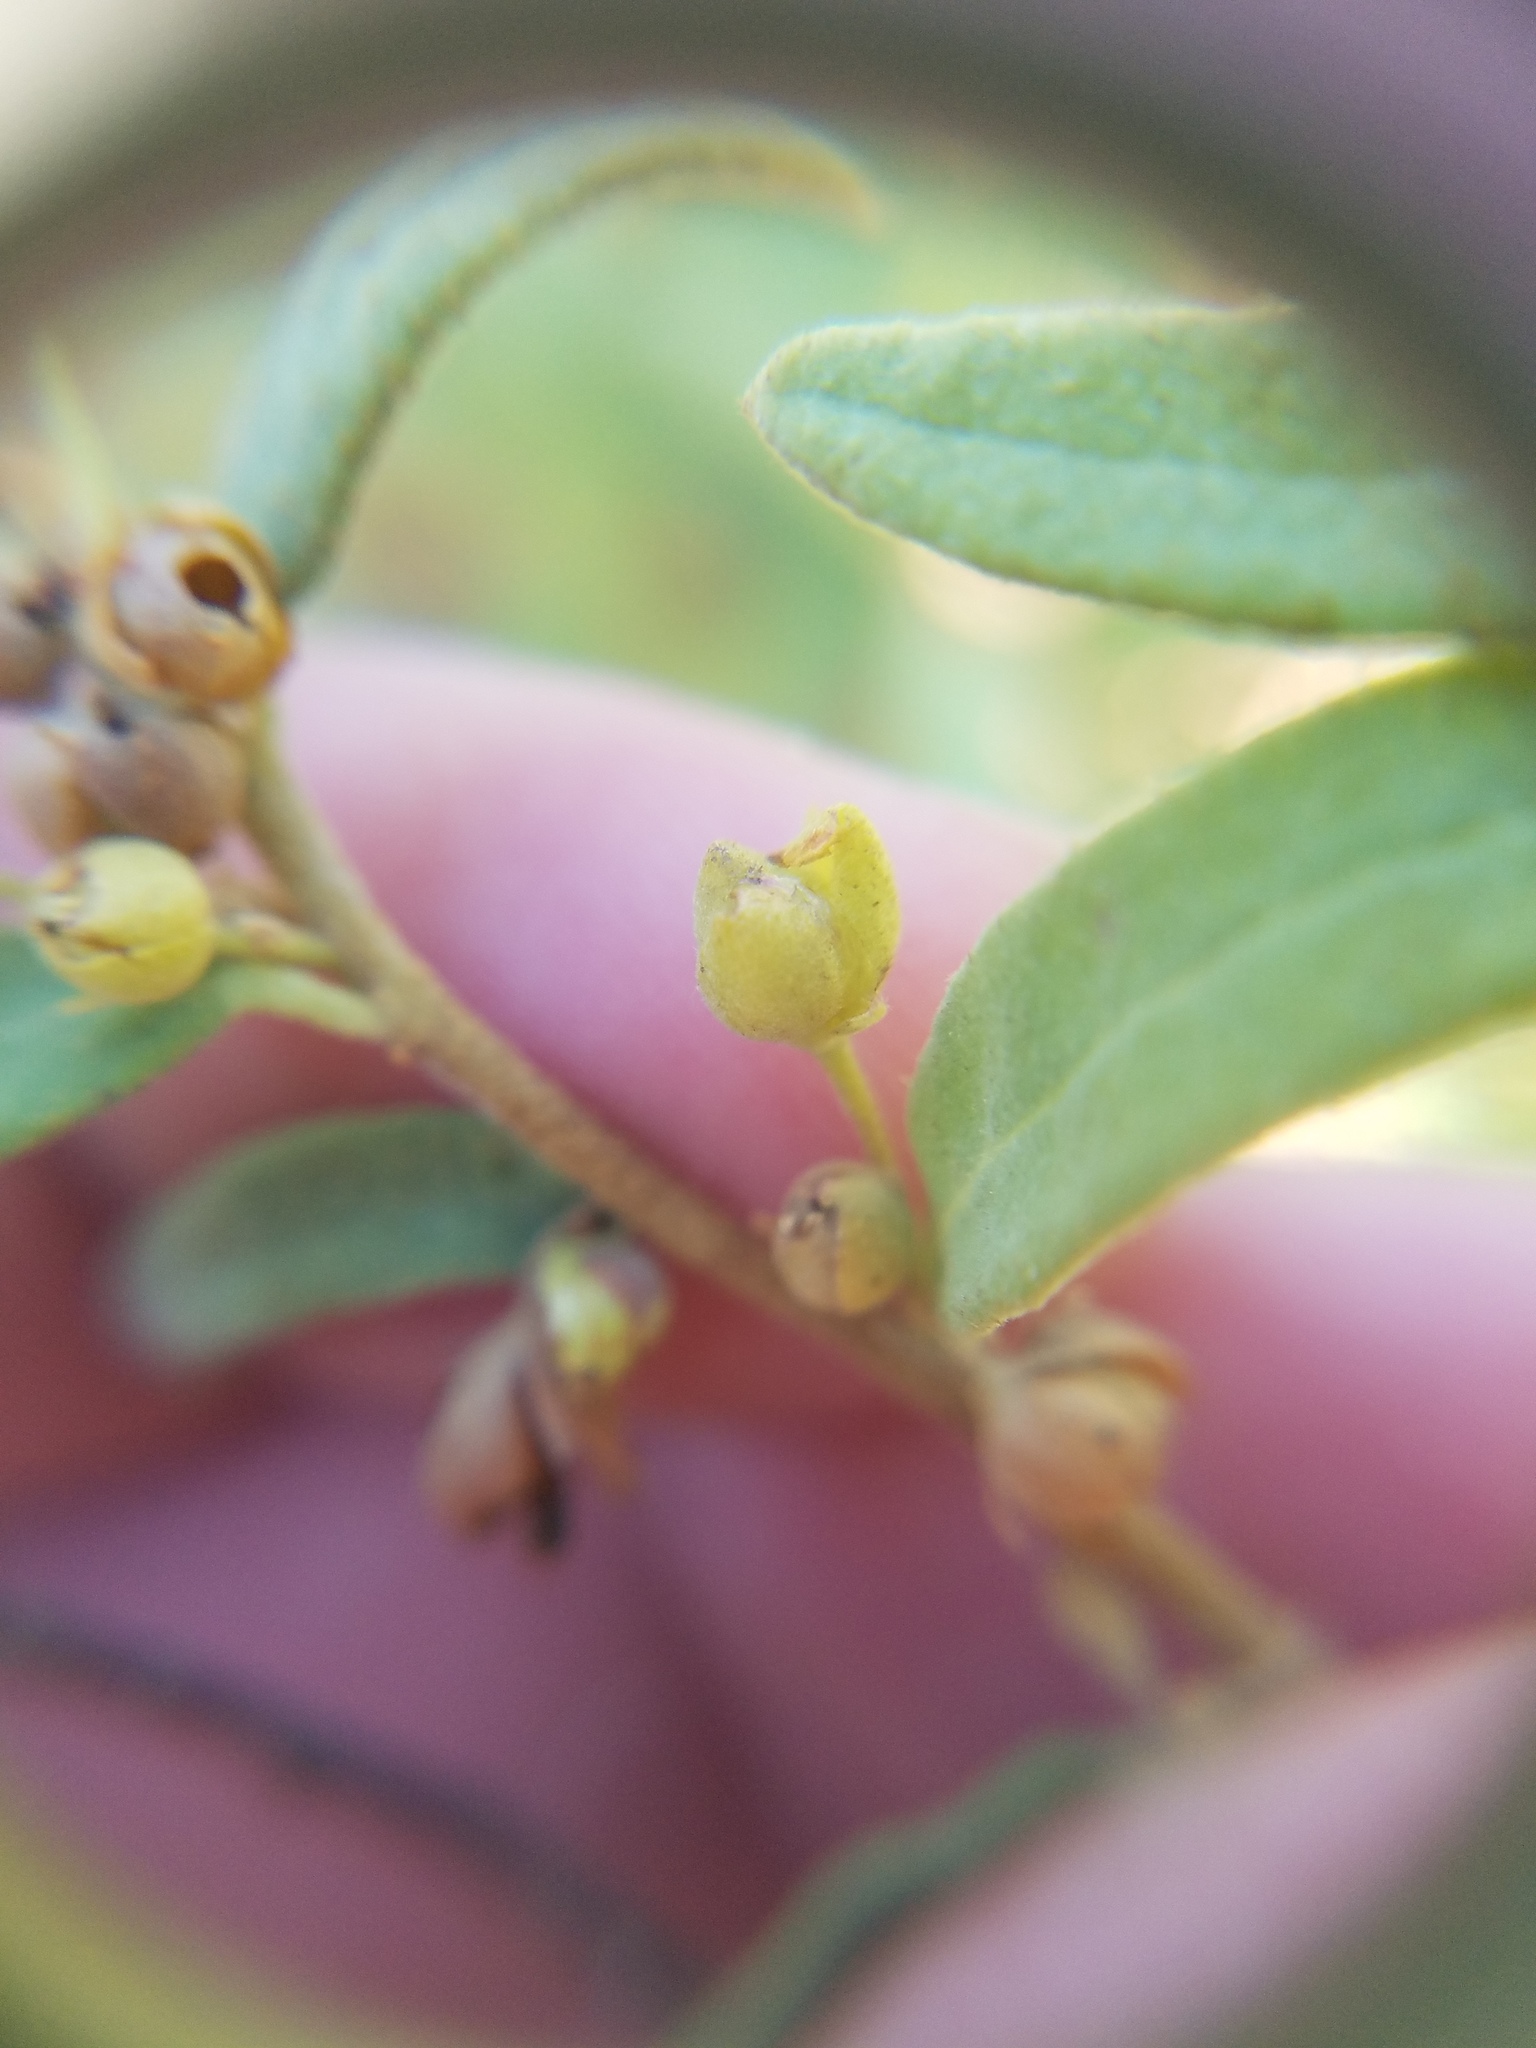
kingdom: Plantae
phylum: Tracheophyta
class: Magnoliopsida
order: Malvales
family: Cistaceae
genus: Crocanthemum
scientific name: Crocanthemum nashii
